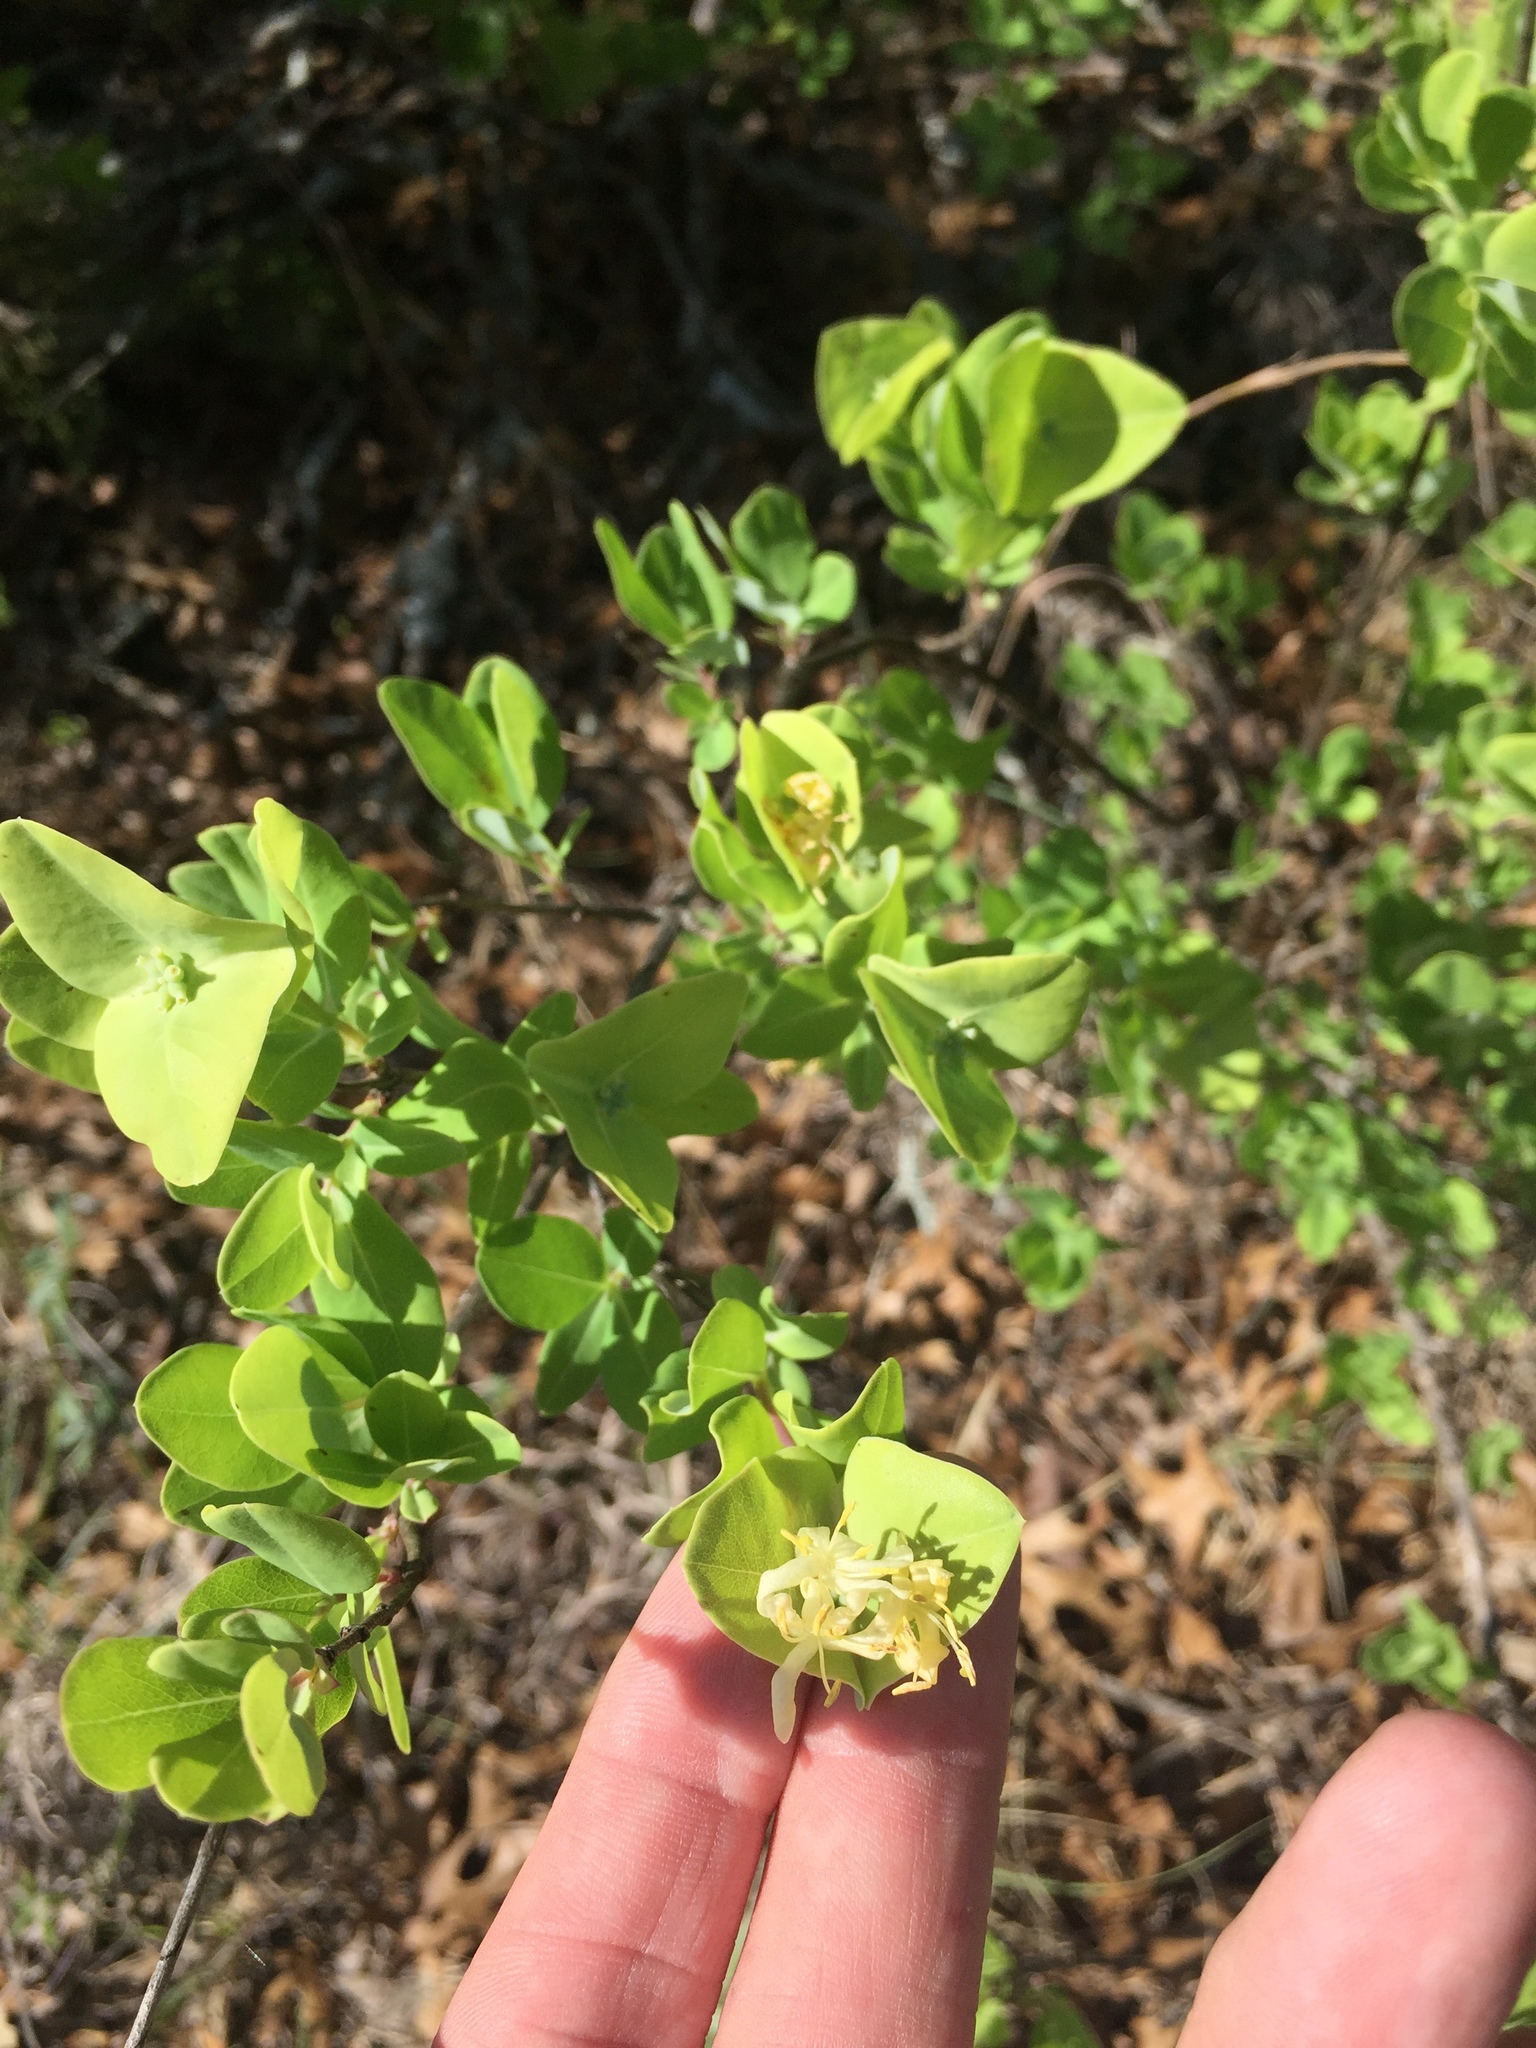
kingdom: Plantae
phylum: Tracheophyta
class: Magnoliopsida
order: Dipsacales
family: Caprifoliaceae
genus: Lonicera
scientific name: Lonicera albiflora
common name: White honeysuckle
